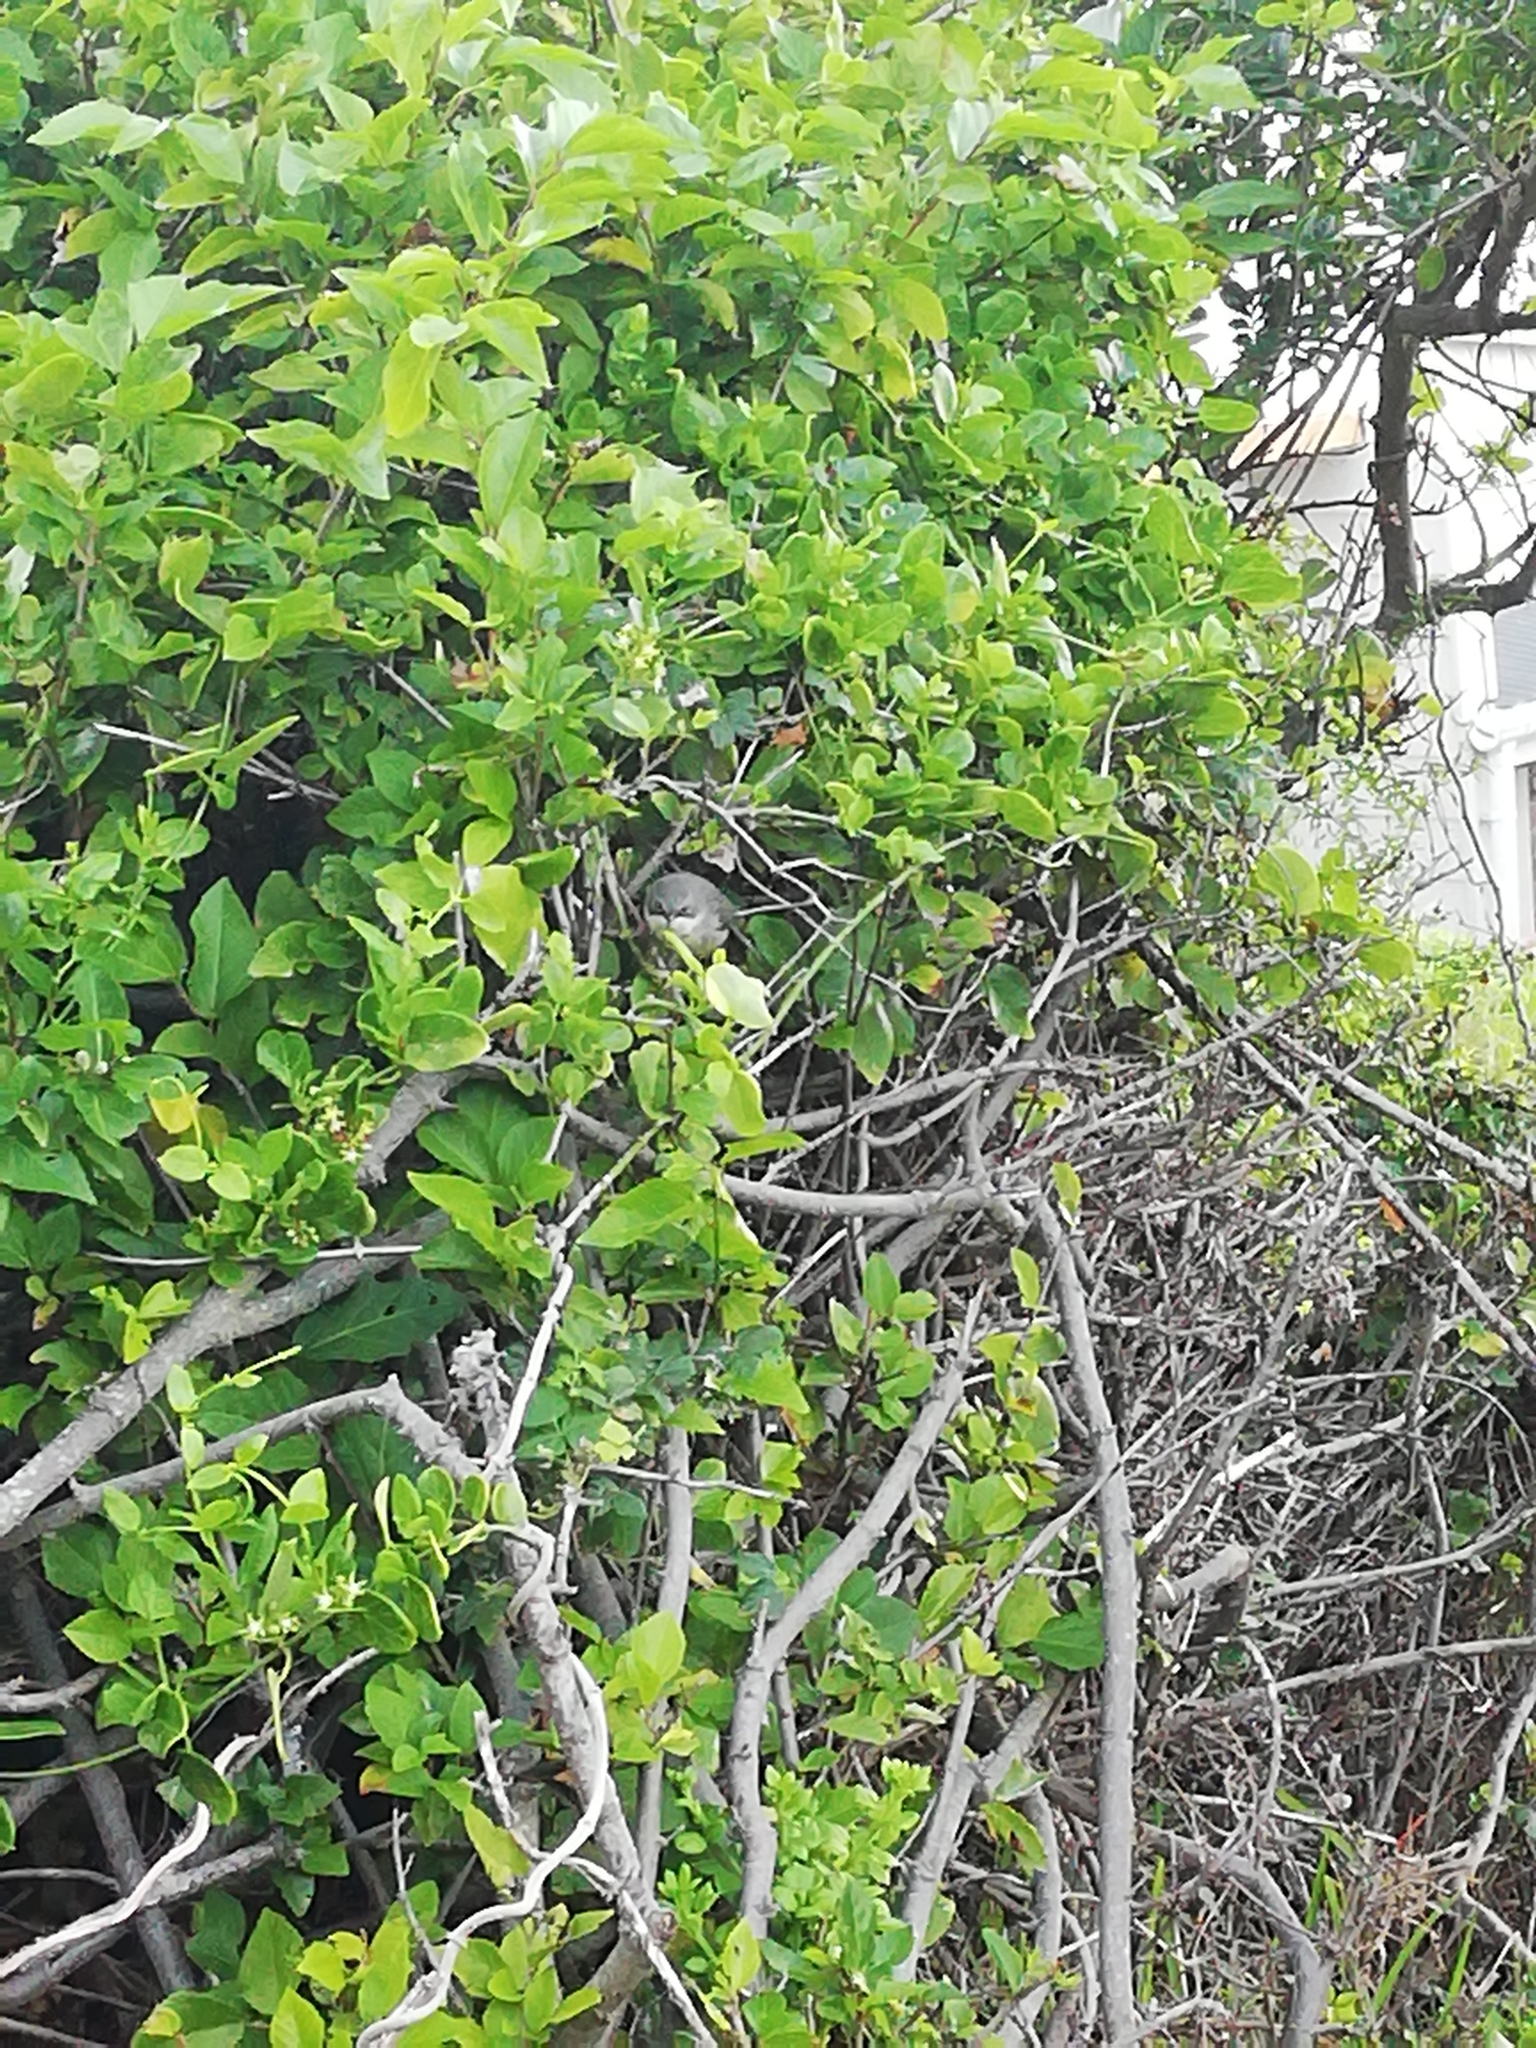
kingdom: Animalia
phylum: Chordata
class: Aves
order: Passeriformes
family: Cisticolidae
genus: Apalis
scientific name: Apalis thoracica
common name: Bar-throated apalis
